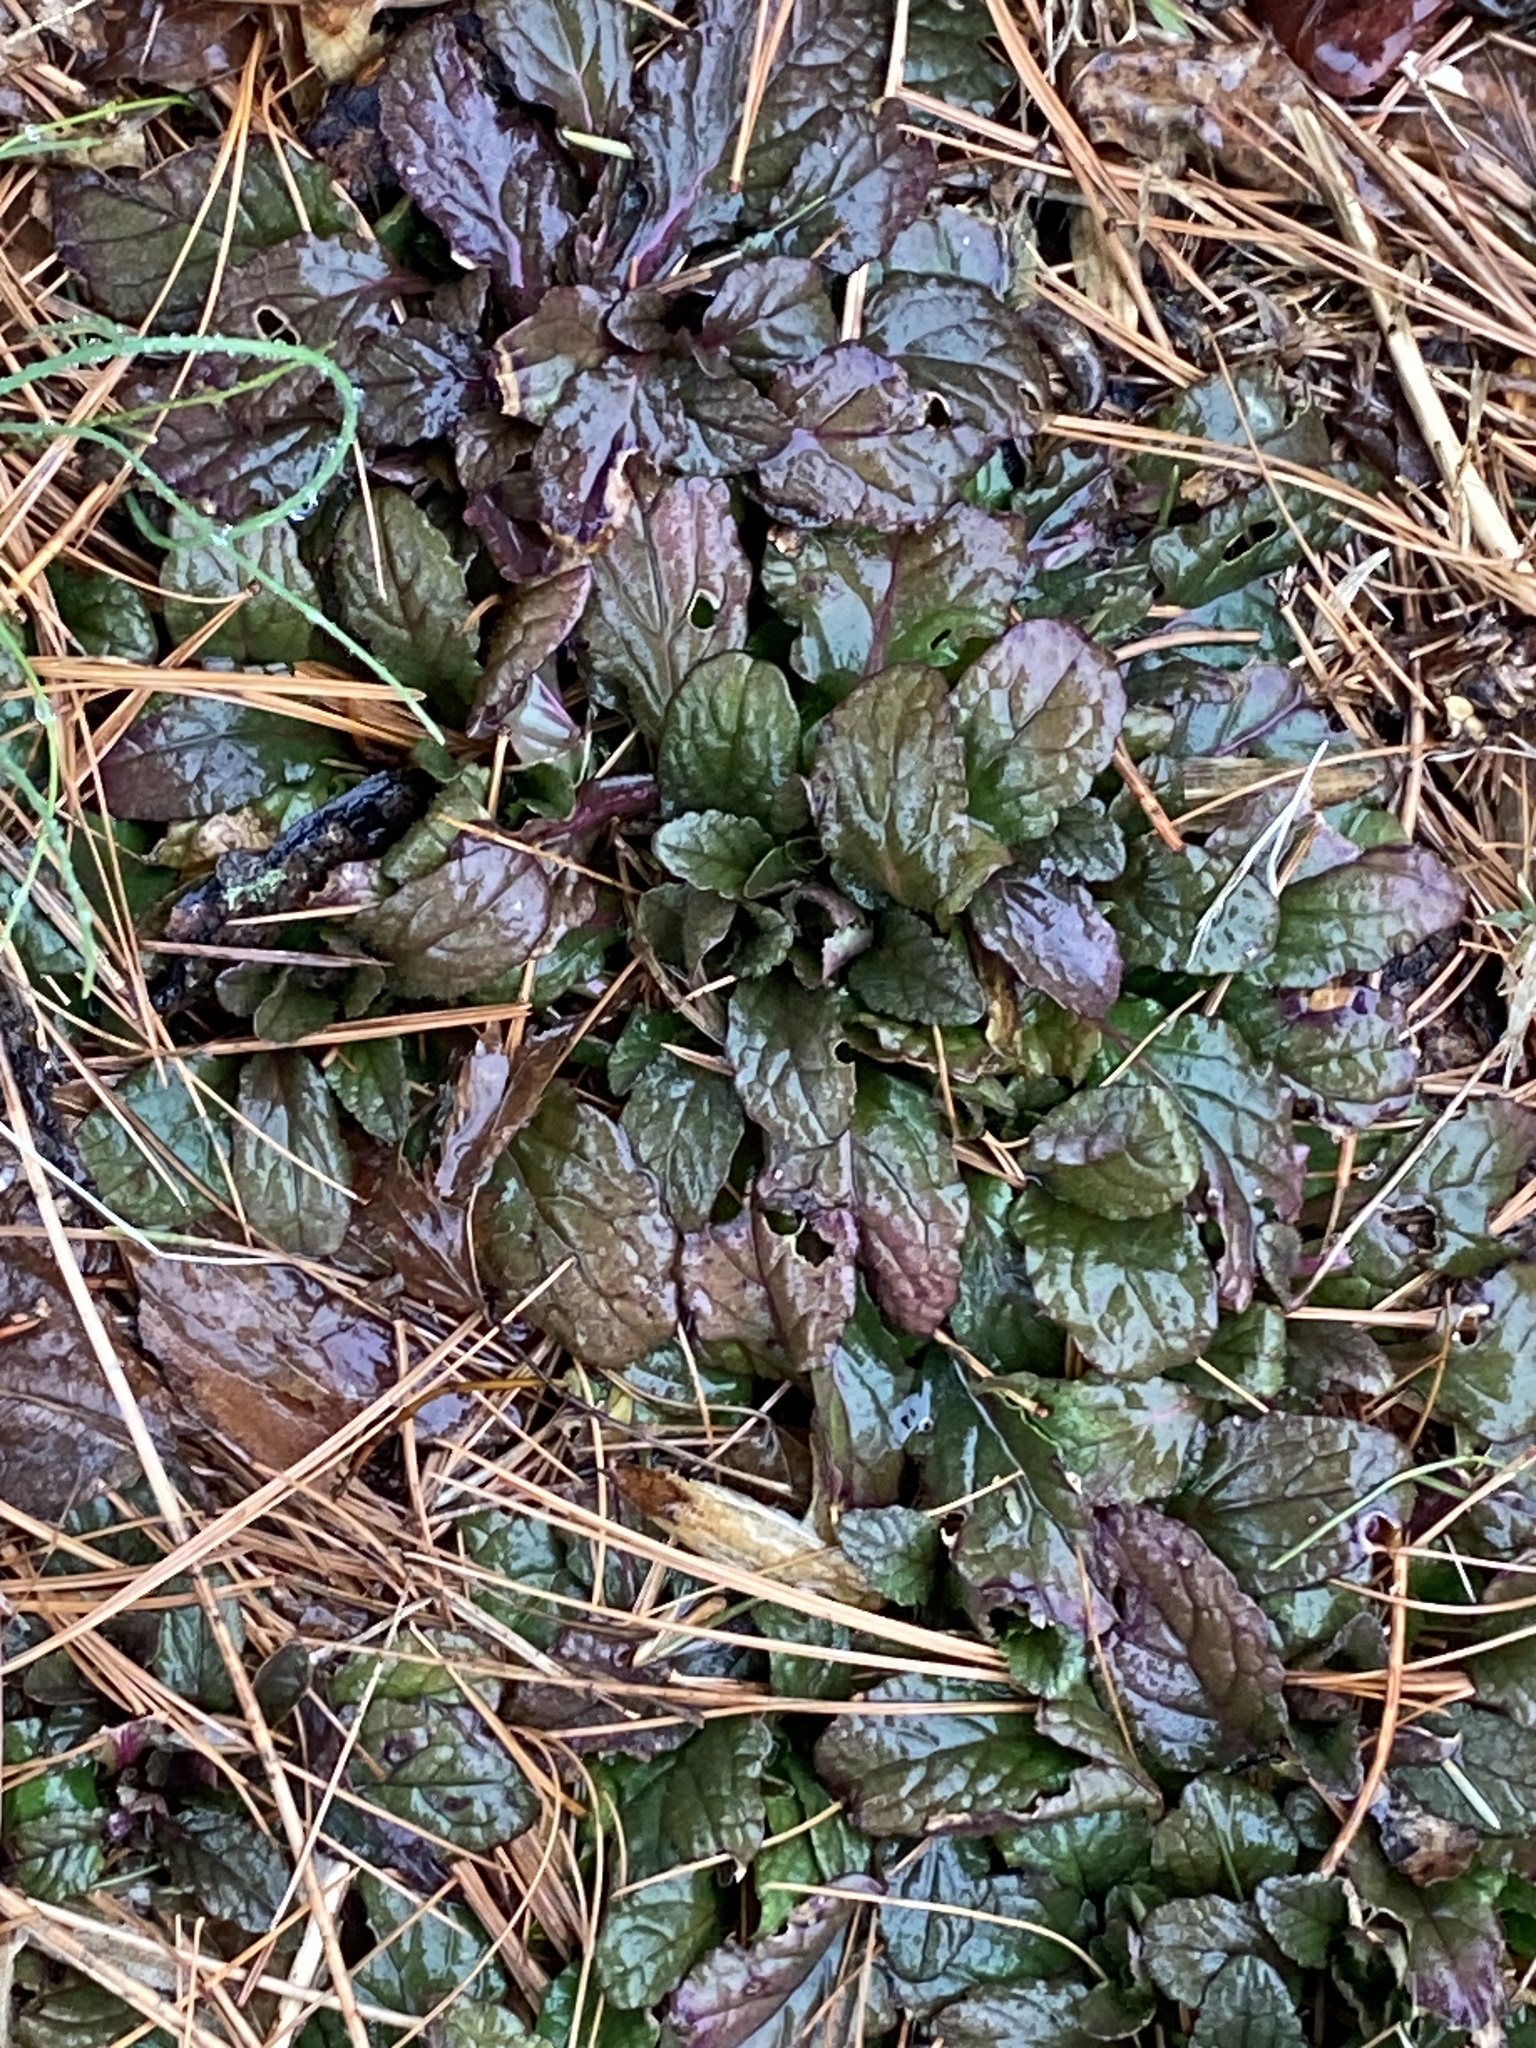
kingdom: Plantae
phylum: Tracheophyta
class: Magnoliopsida
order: Lamiales
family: Lamiaceae
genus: Ajuga
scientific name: Ajuga reptans
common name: Bugle
